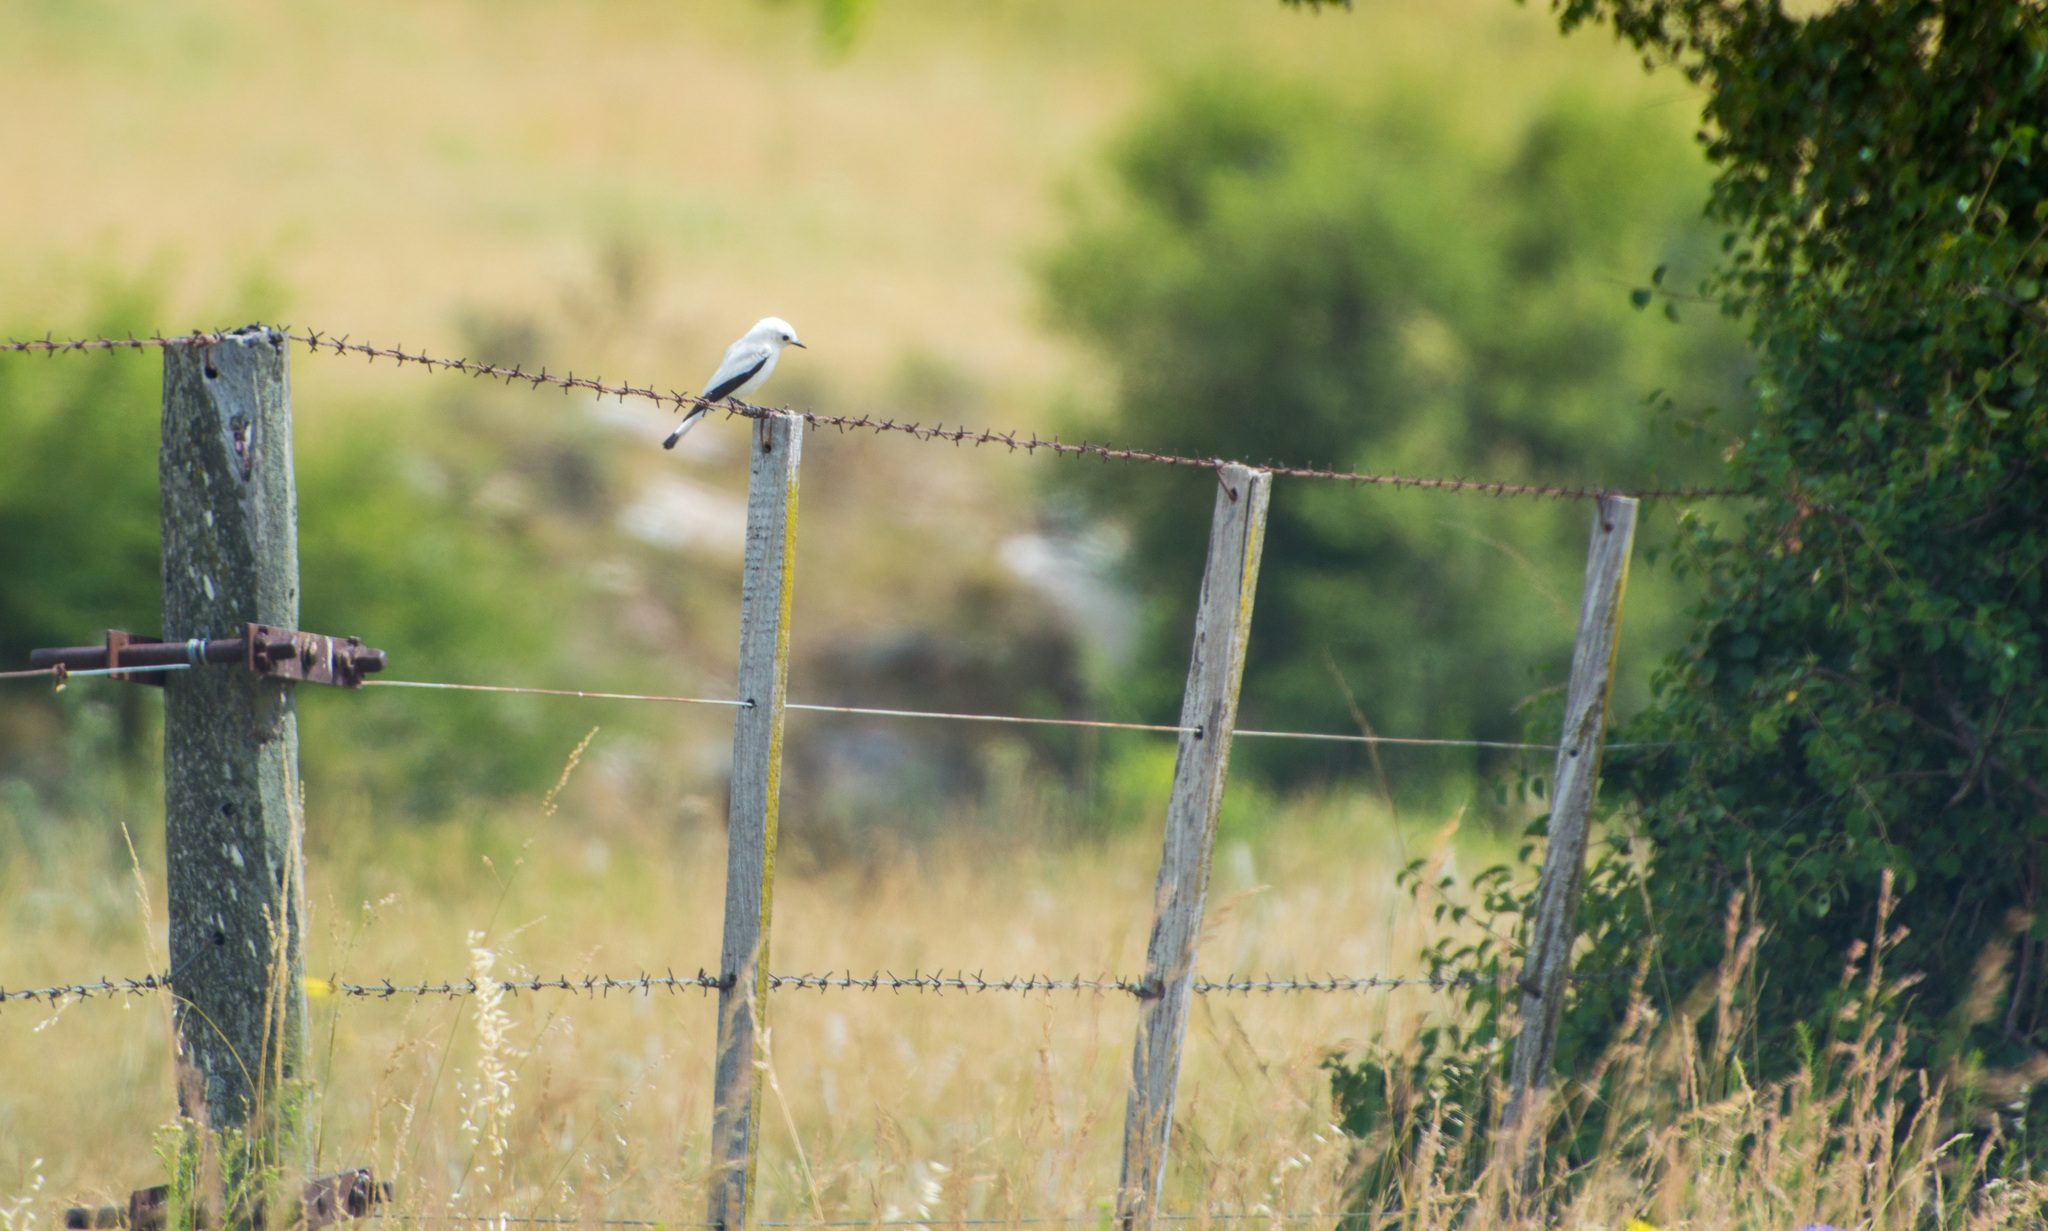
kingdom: Animalia
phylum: Chordata
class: Aves
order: Passeriformes
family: Tyrannidae
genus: Xolmis
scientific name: Xolmis irupero
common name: White monjita
